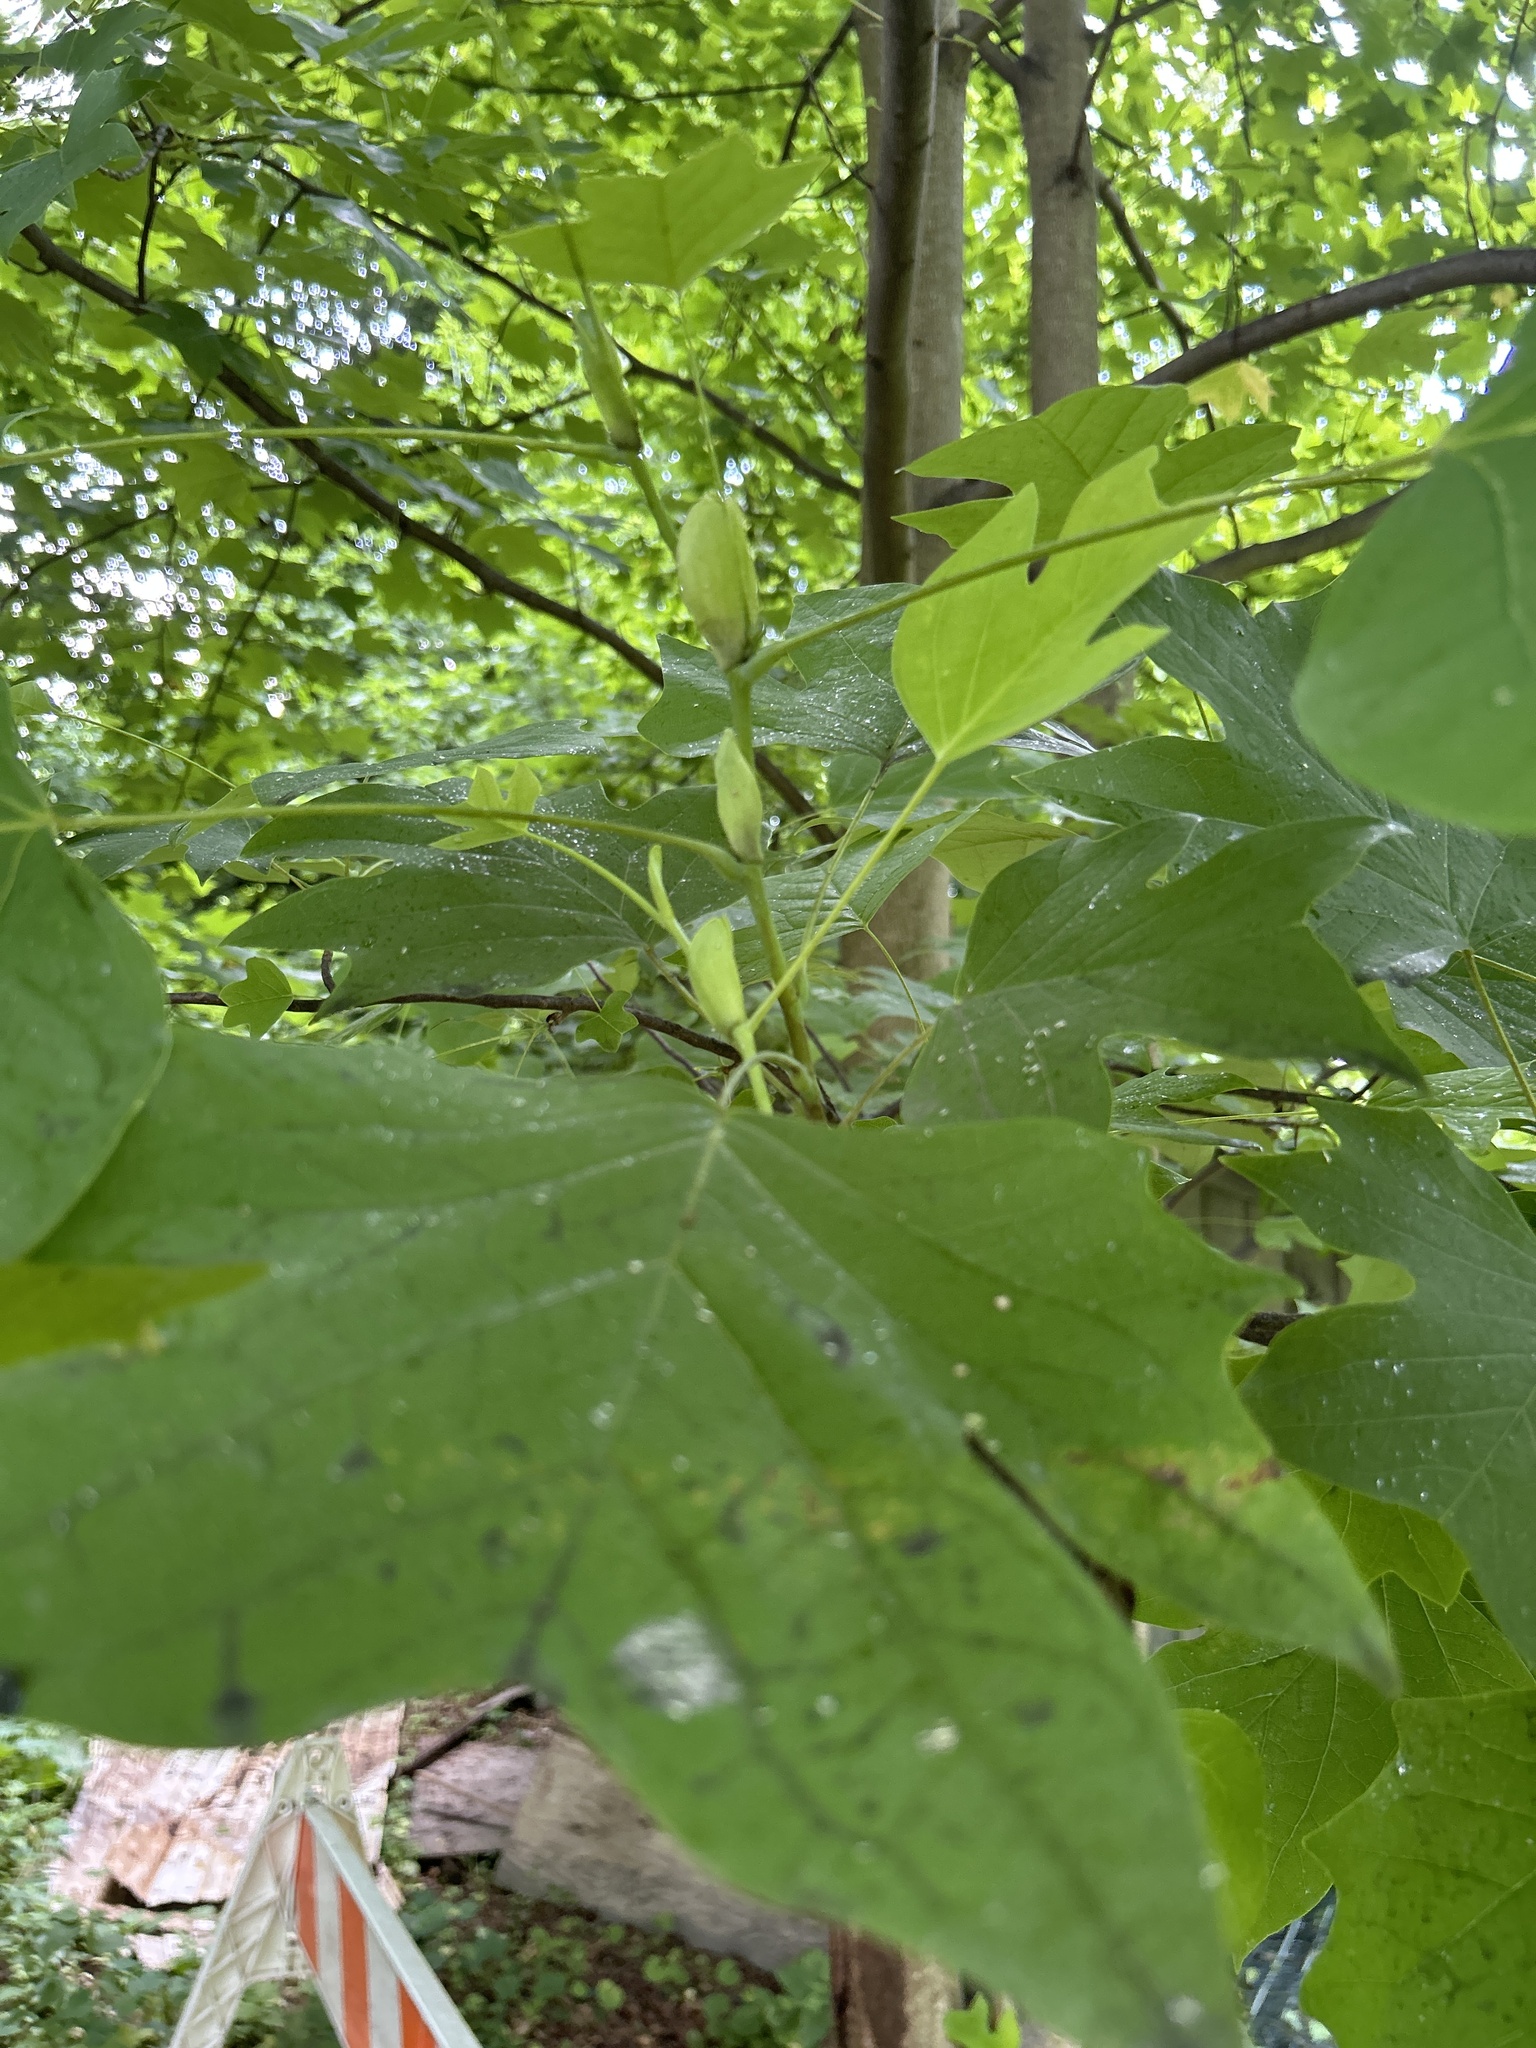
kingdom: Plantae
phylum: Tracheophyta
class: Magnoliopsida
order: Magnoliales
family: Magnoliaceae
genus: Liriodendron
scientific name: Liriodendron tulipifera
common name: Tulip tree
